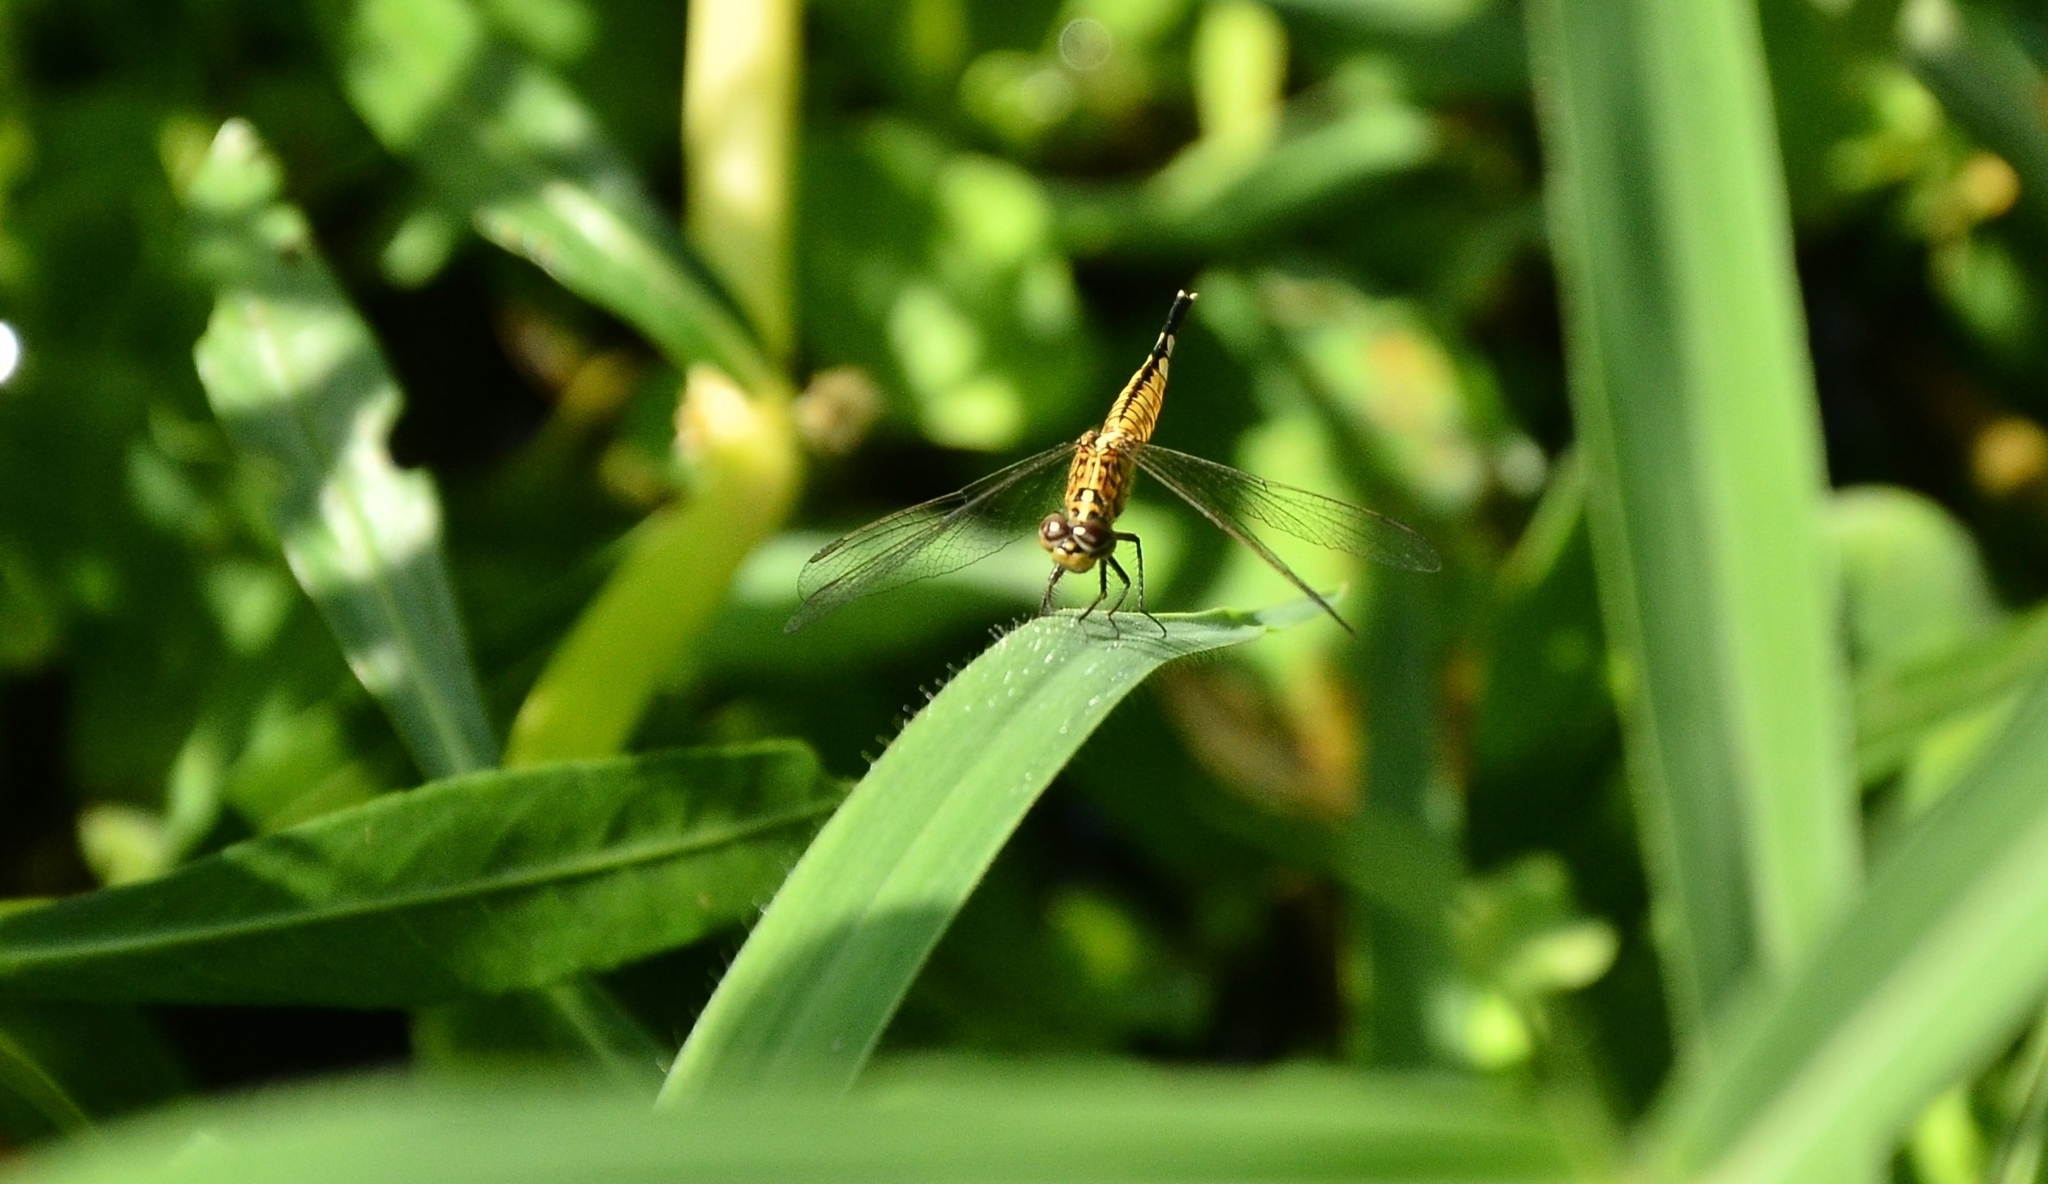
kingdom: Animalia
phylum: Arthropoda
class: Insecta
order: Odonata
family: Libellulidae
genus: Acisoma
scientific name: Acisoma panorpoides
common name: Asian pintail
